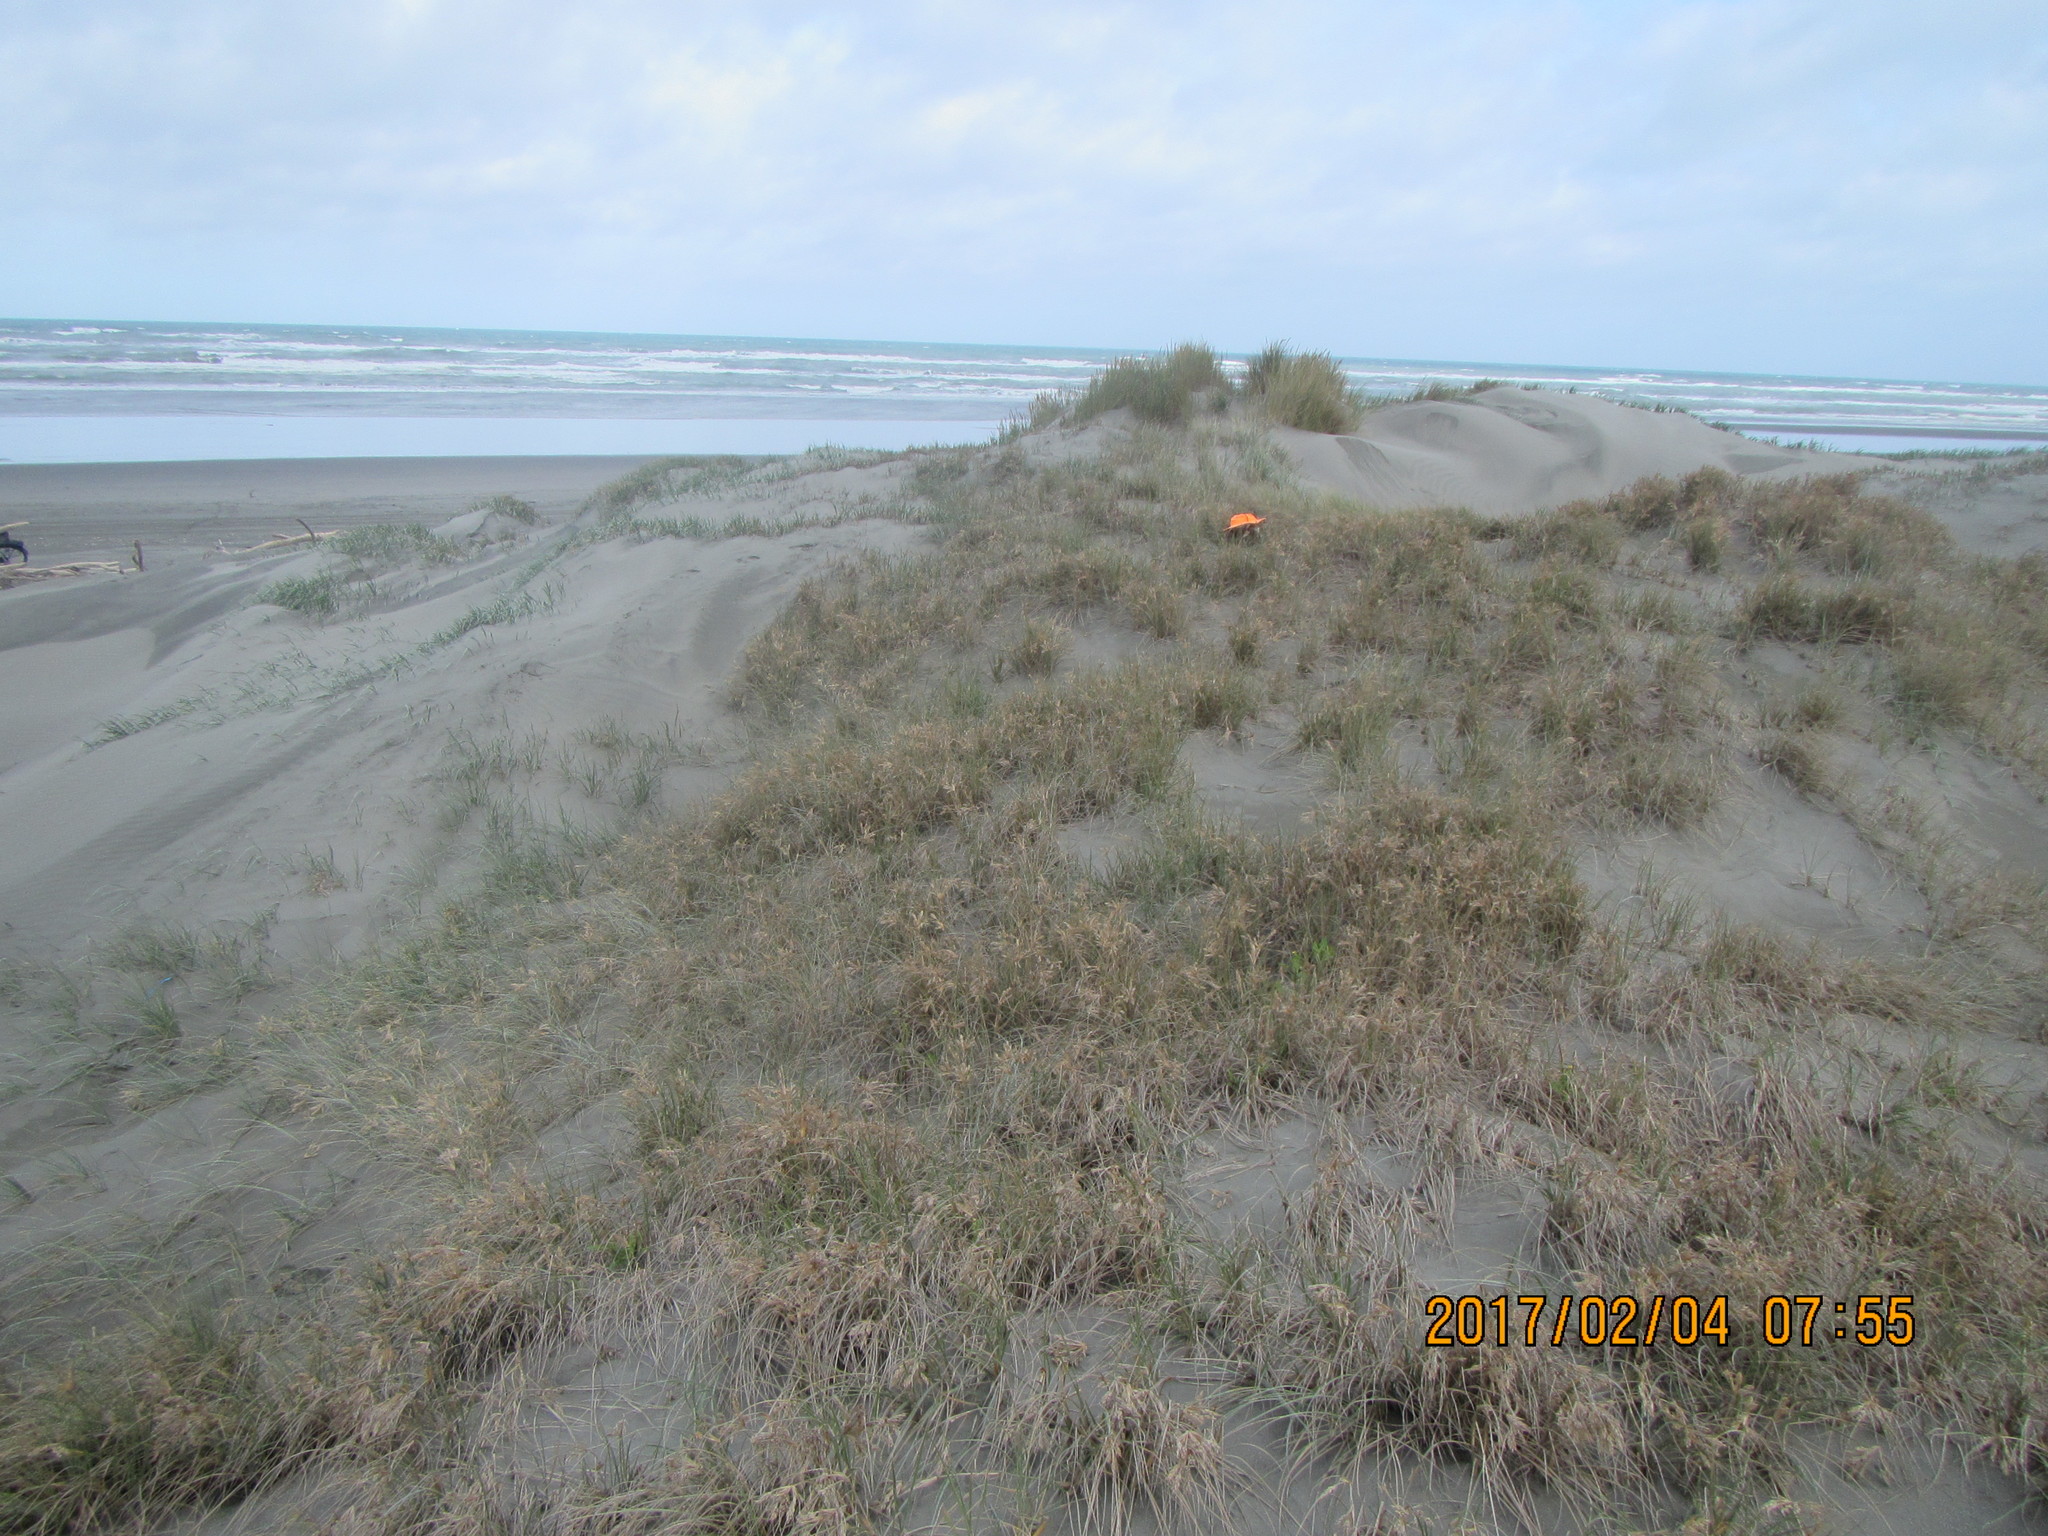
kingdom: Animalia
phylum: Arthropoda
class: Arachnida
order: Araneae
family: Theridiidae
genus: Latrodectus
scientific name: Latrodectus katipo
